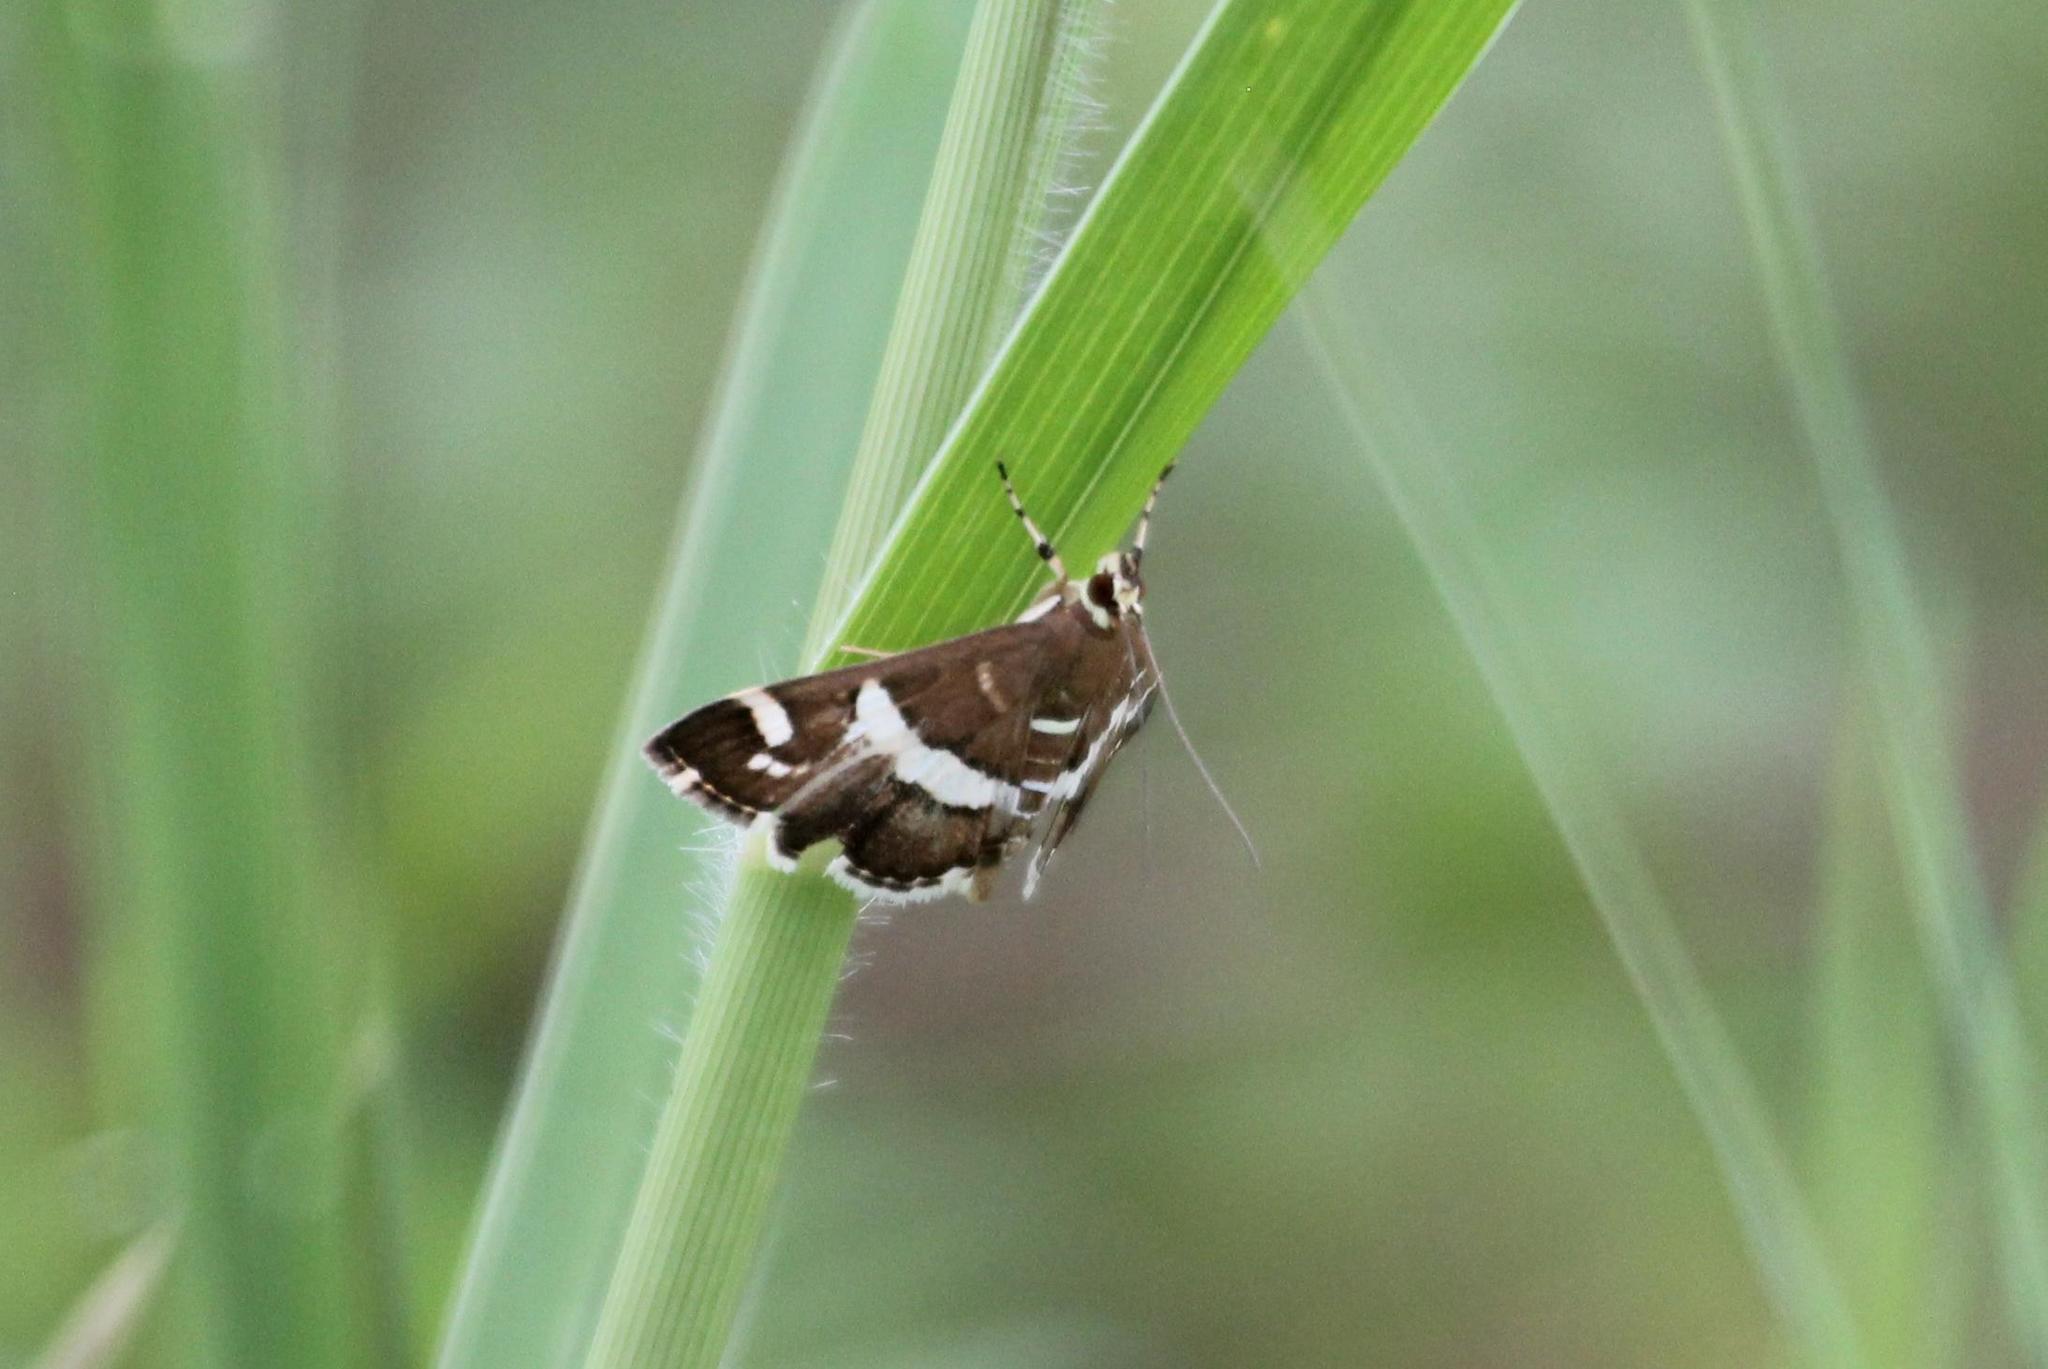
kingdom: Animalia
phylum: Arthropoda
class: Insecta
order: Lepidoptera
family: Crambidae
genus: Spoladea
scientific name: Spoladea recurvalis
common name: Beet webworm moth
